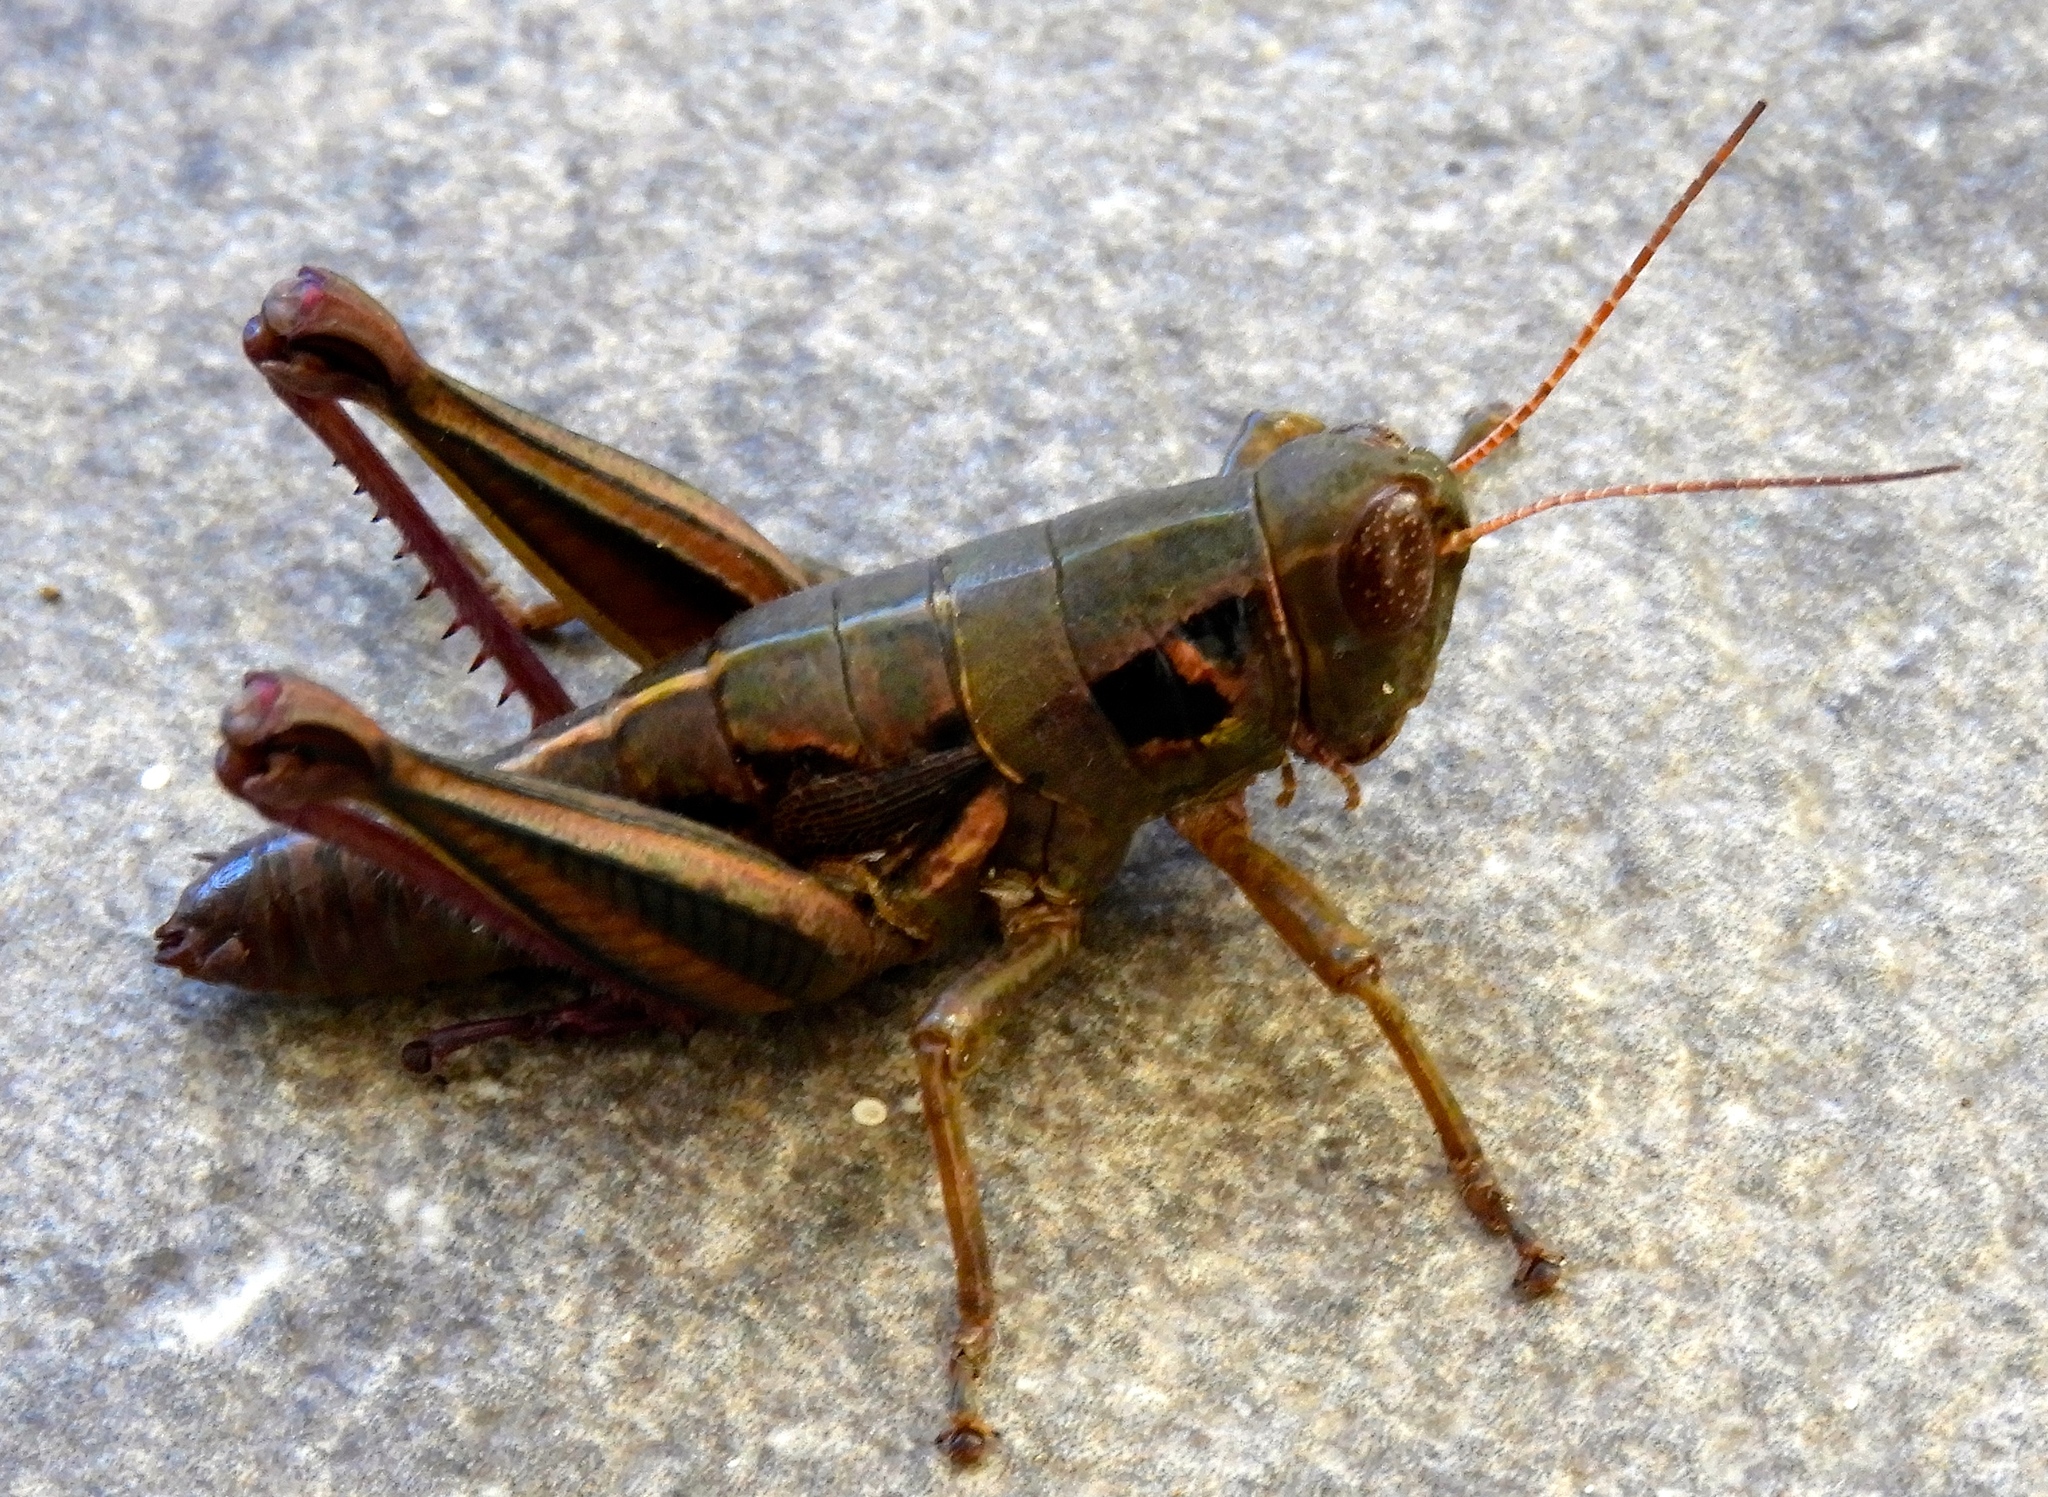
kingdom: Animalia
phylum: Arthropoda
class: Insecta
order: Orthoptera
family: Acrididae
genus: Barytettix
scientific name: Barytettix
